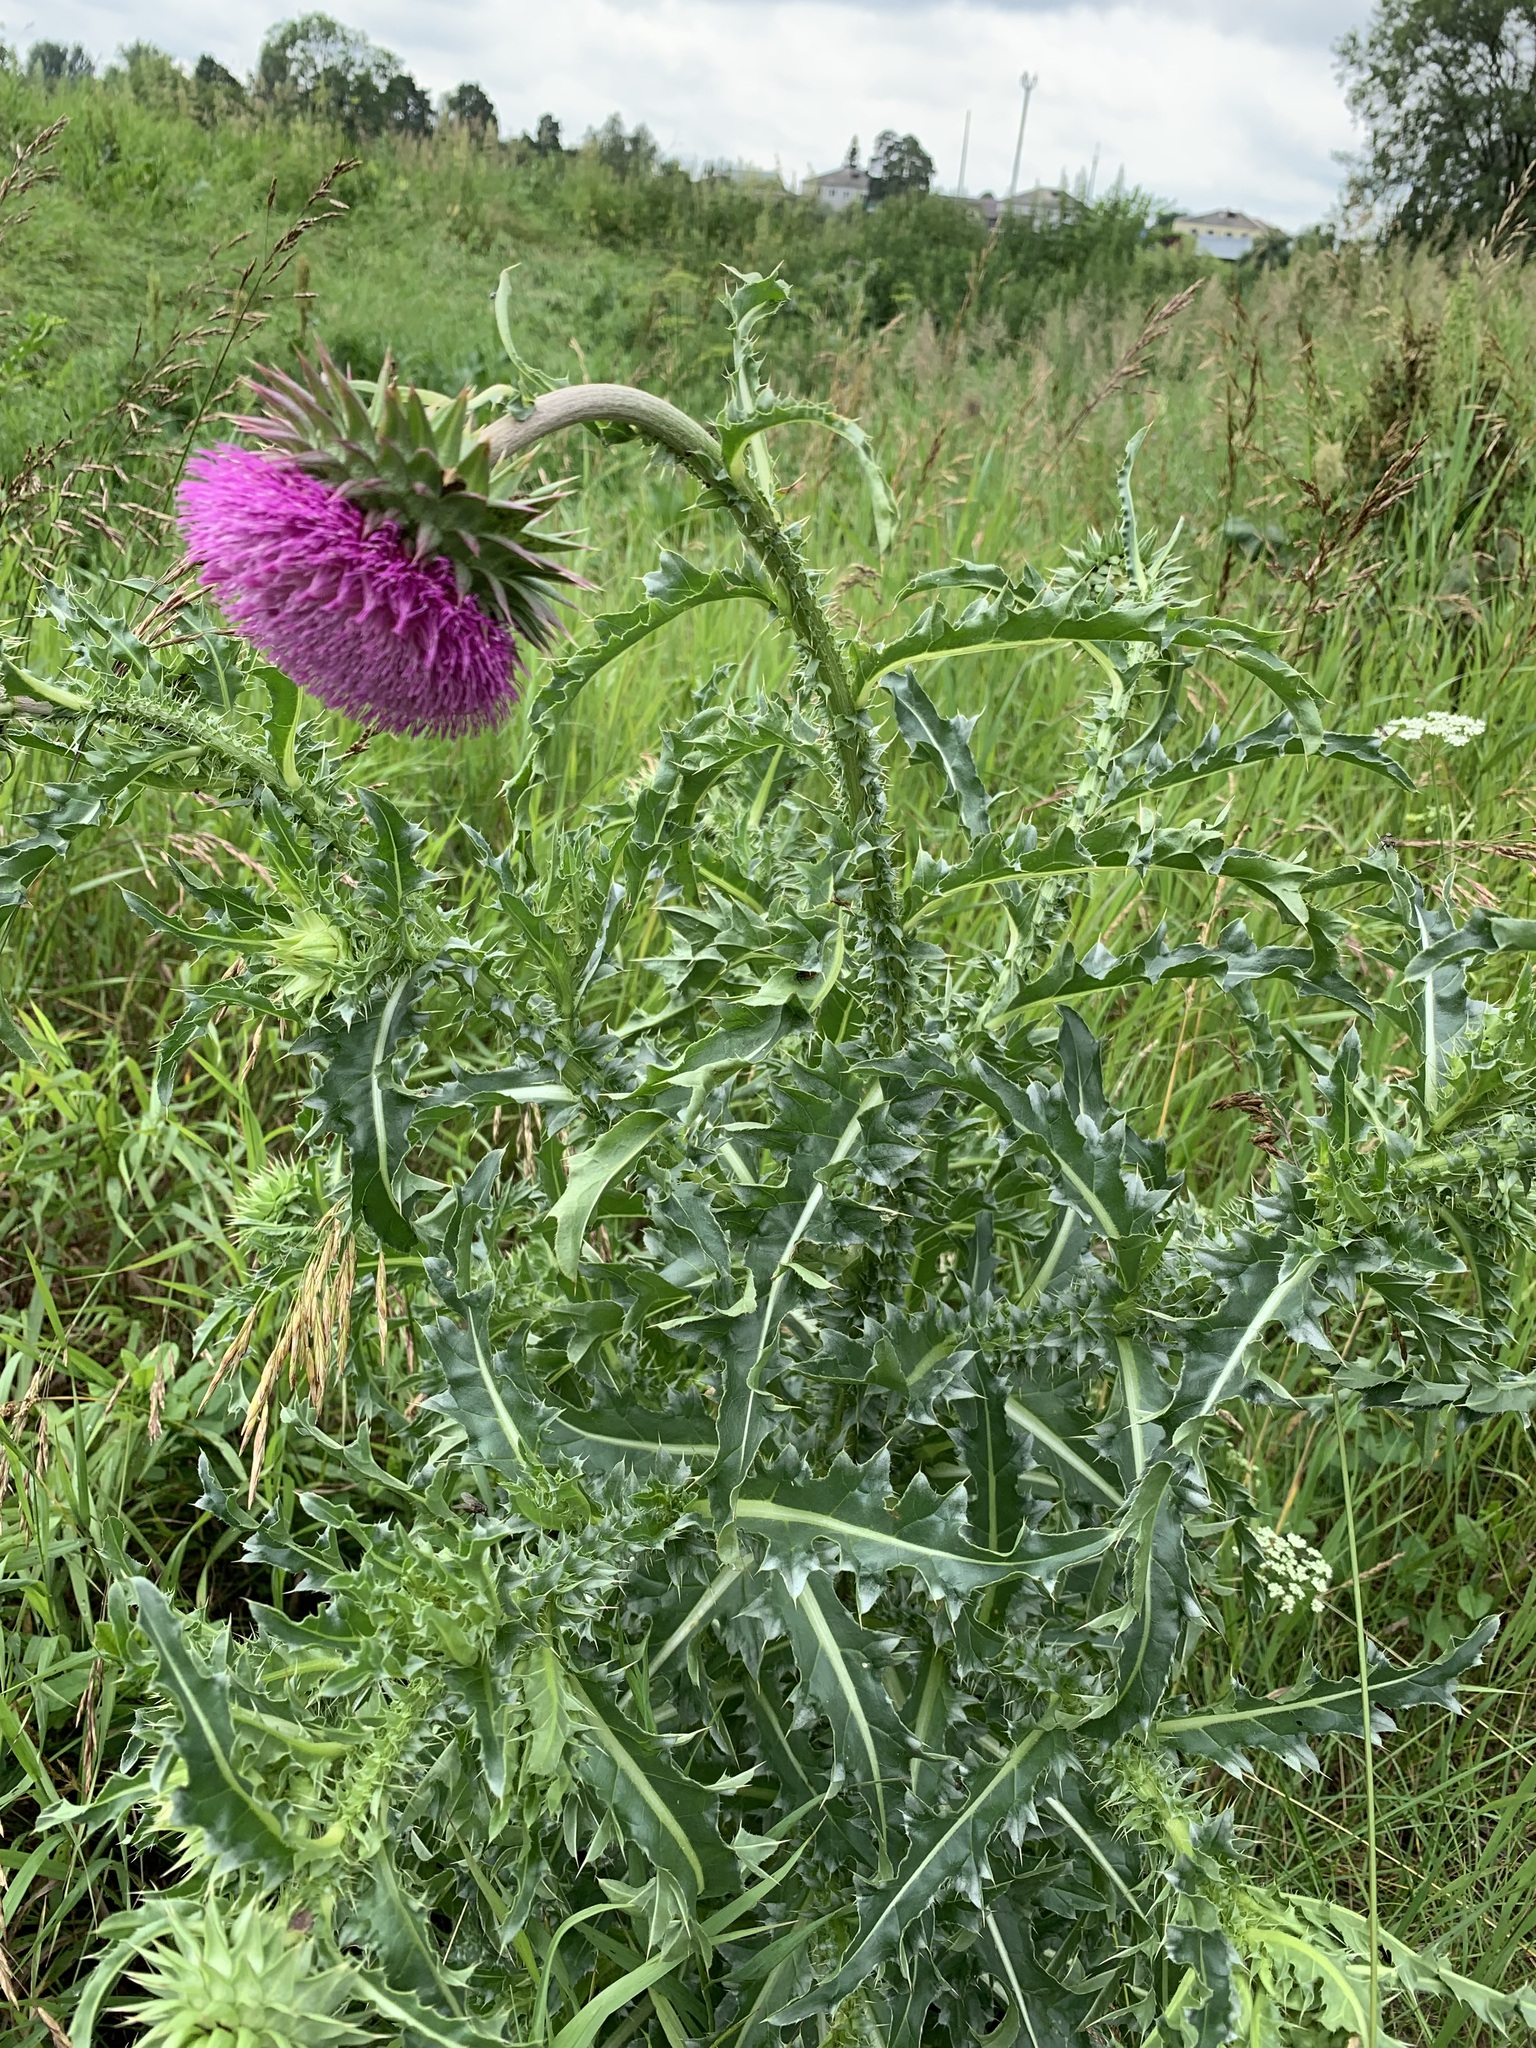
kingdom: Plantae
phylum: Tracheophyta
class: Magnoliopsida
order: Asterales
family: Asteraceae
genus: Carduus
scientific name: Carduus nutans
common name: Musk thistle
